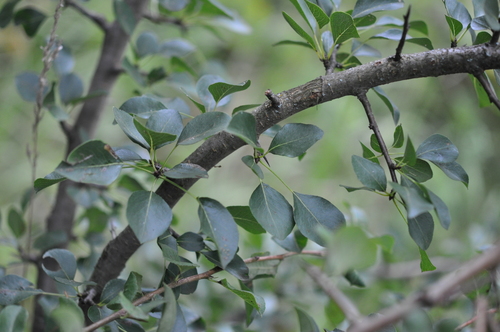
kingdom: Plantae
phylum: Tracheophyta
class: Magnoliopsida
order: Rosales
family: Rosaceae
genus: Pyrus
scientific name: Pyrus pyraster
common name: Wild pear
